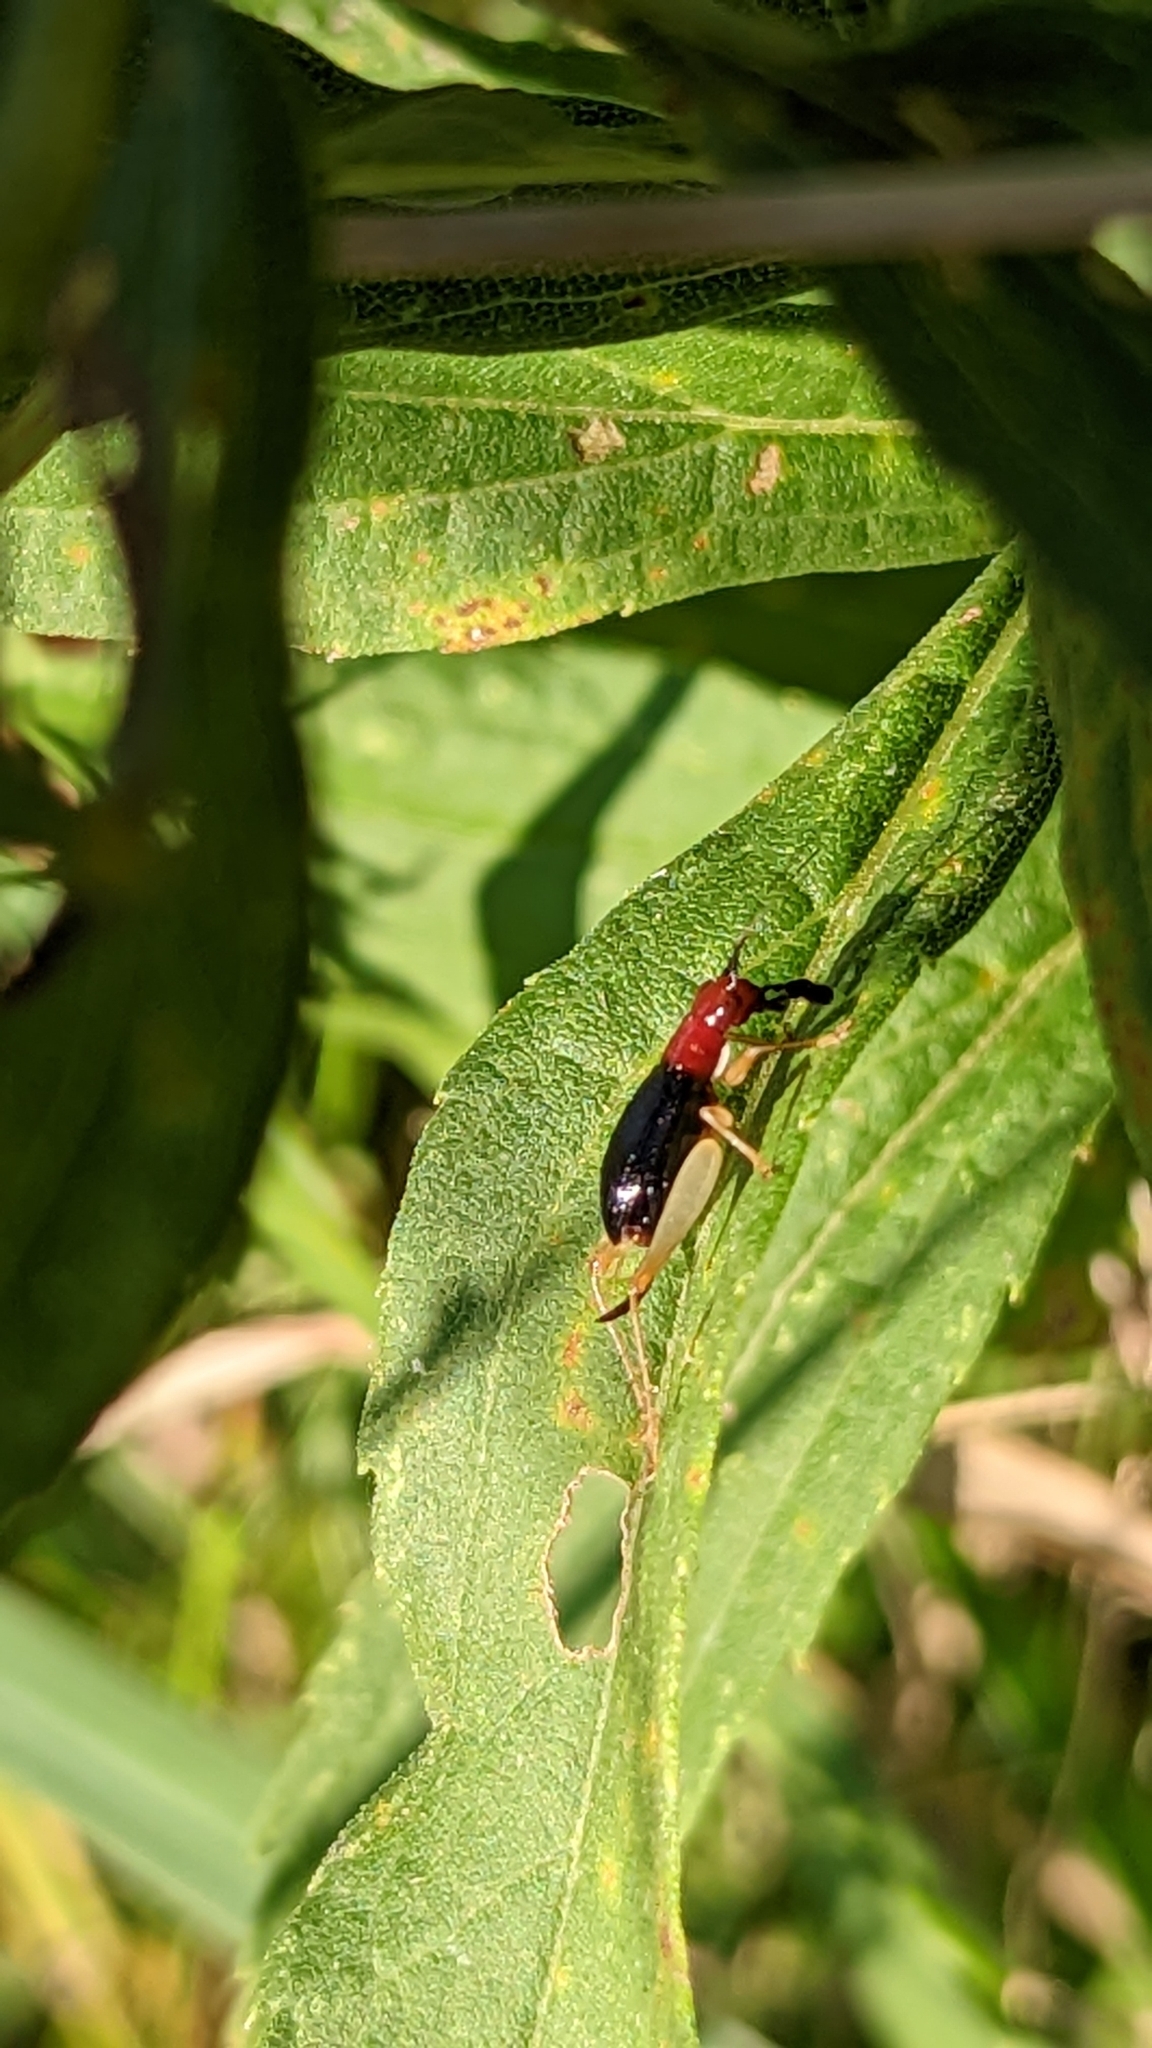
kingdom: Animalia
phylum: Arthropoda
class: Insecta
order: Orthoptera
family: Trigonidiidae
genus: Phyllopalpus
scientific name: Phyllopalpus pulchellus
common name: Handsome trig
